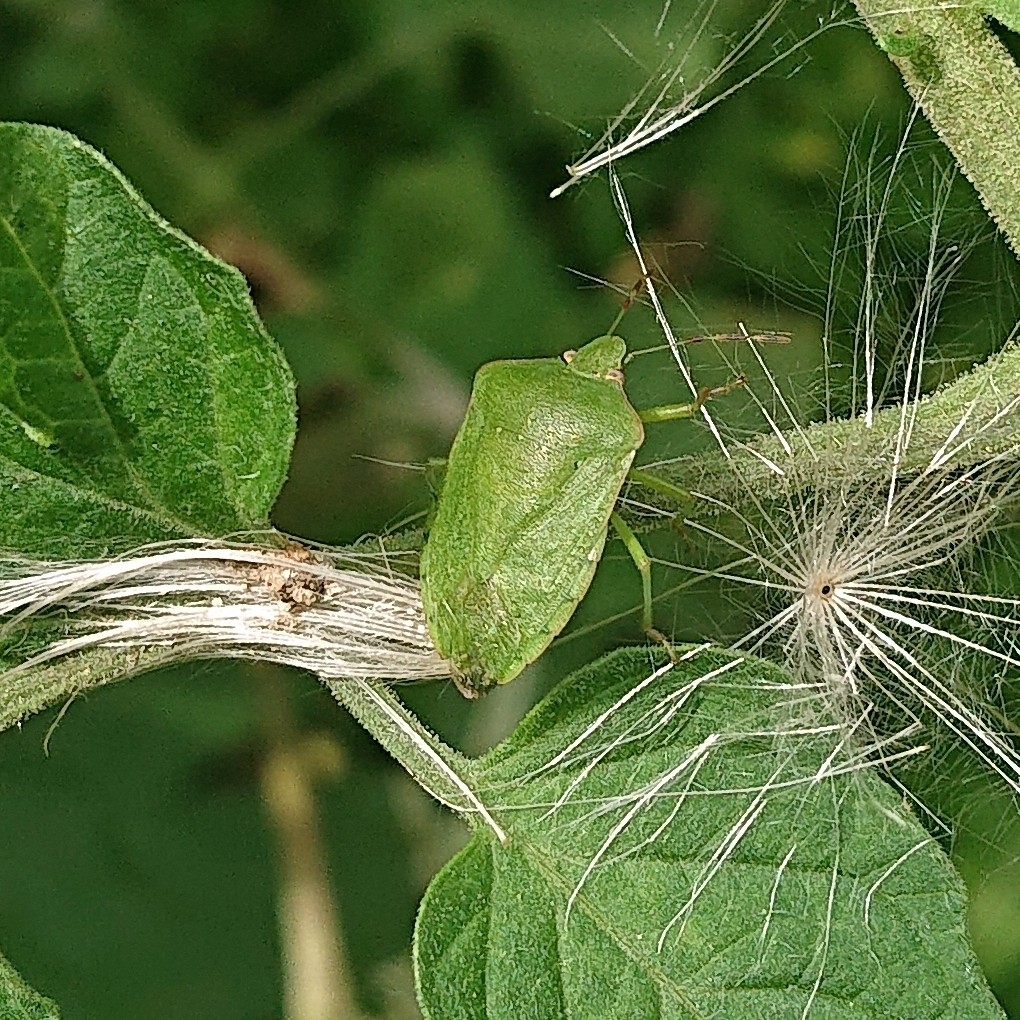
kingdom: Animalia
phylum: Arthropoda
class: Insecta
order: Hemiptera
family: Pentatomidae
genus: Nezara
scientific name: Nezara viridula
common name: Southern green stink bug
